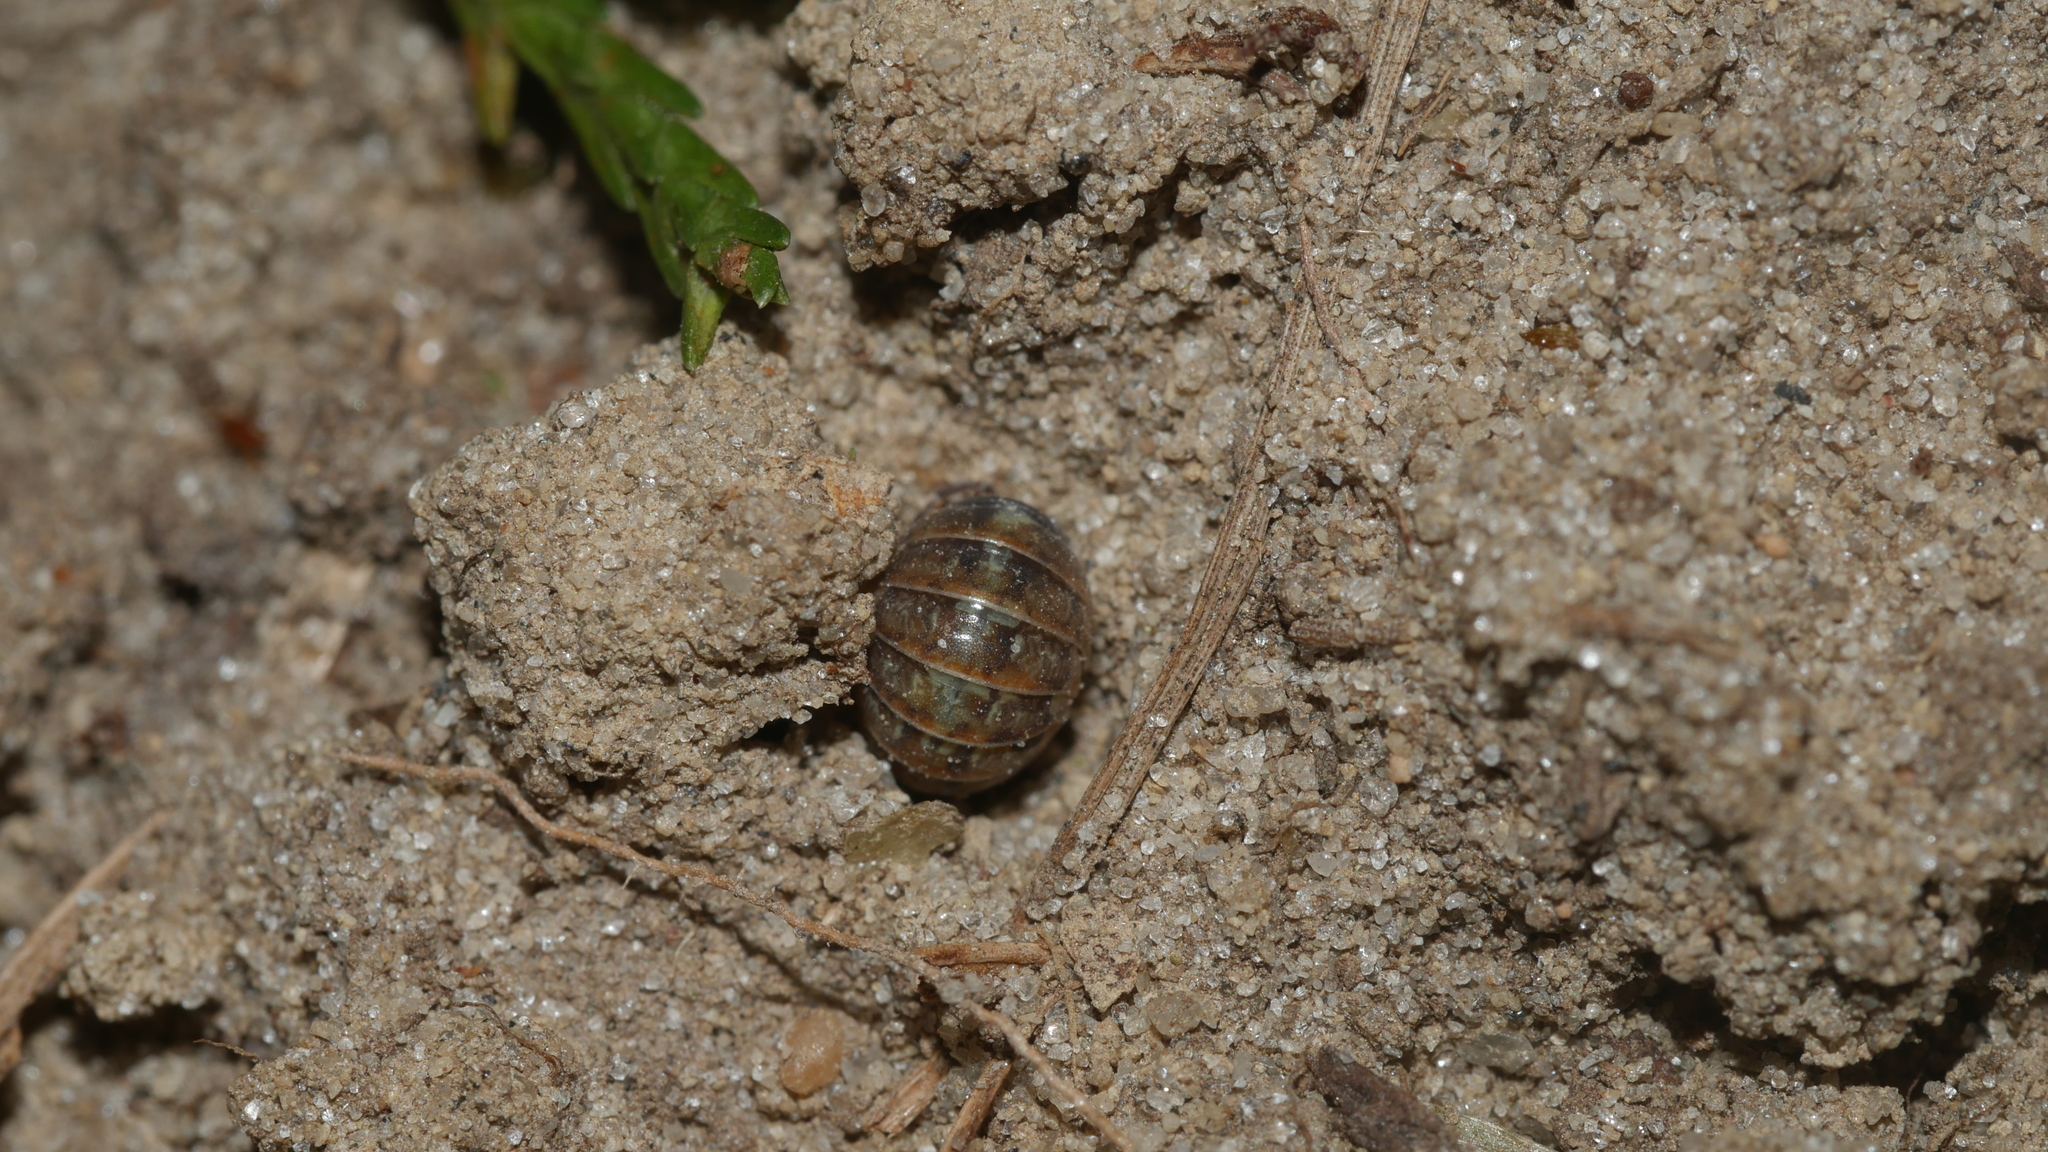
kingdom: Animalia
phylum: Arthropoda
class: Malacostraca
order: Isopoda
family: Armadillidiidae
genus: Armadillidium
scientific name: Armadillidium vulgare
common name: Common pill woodlouse
